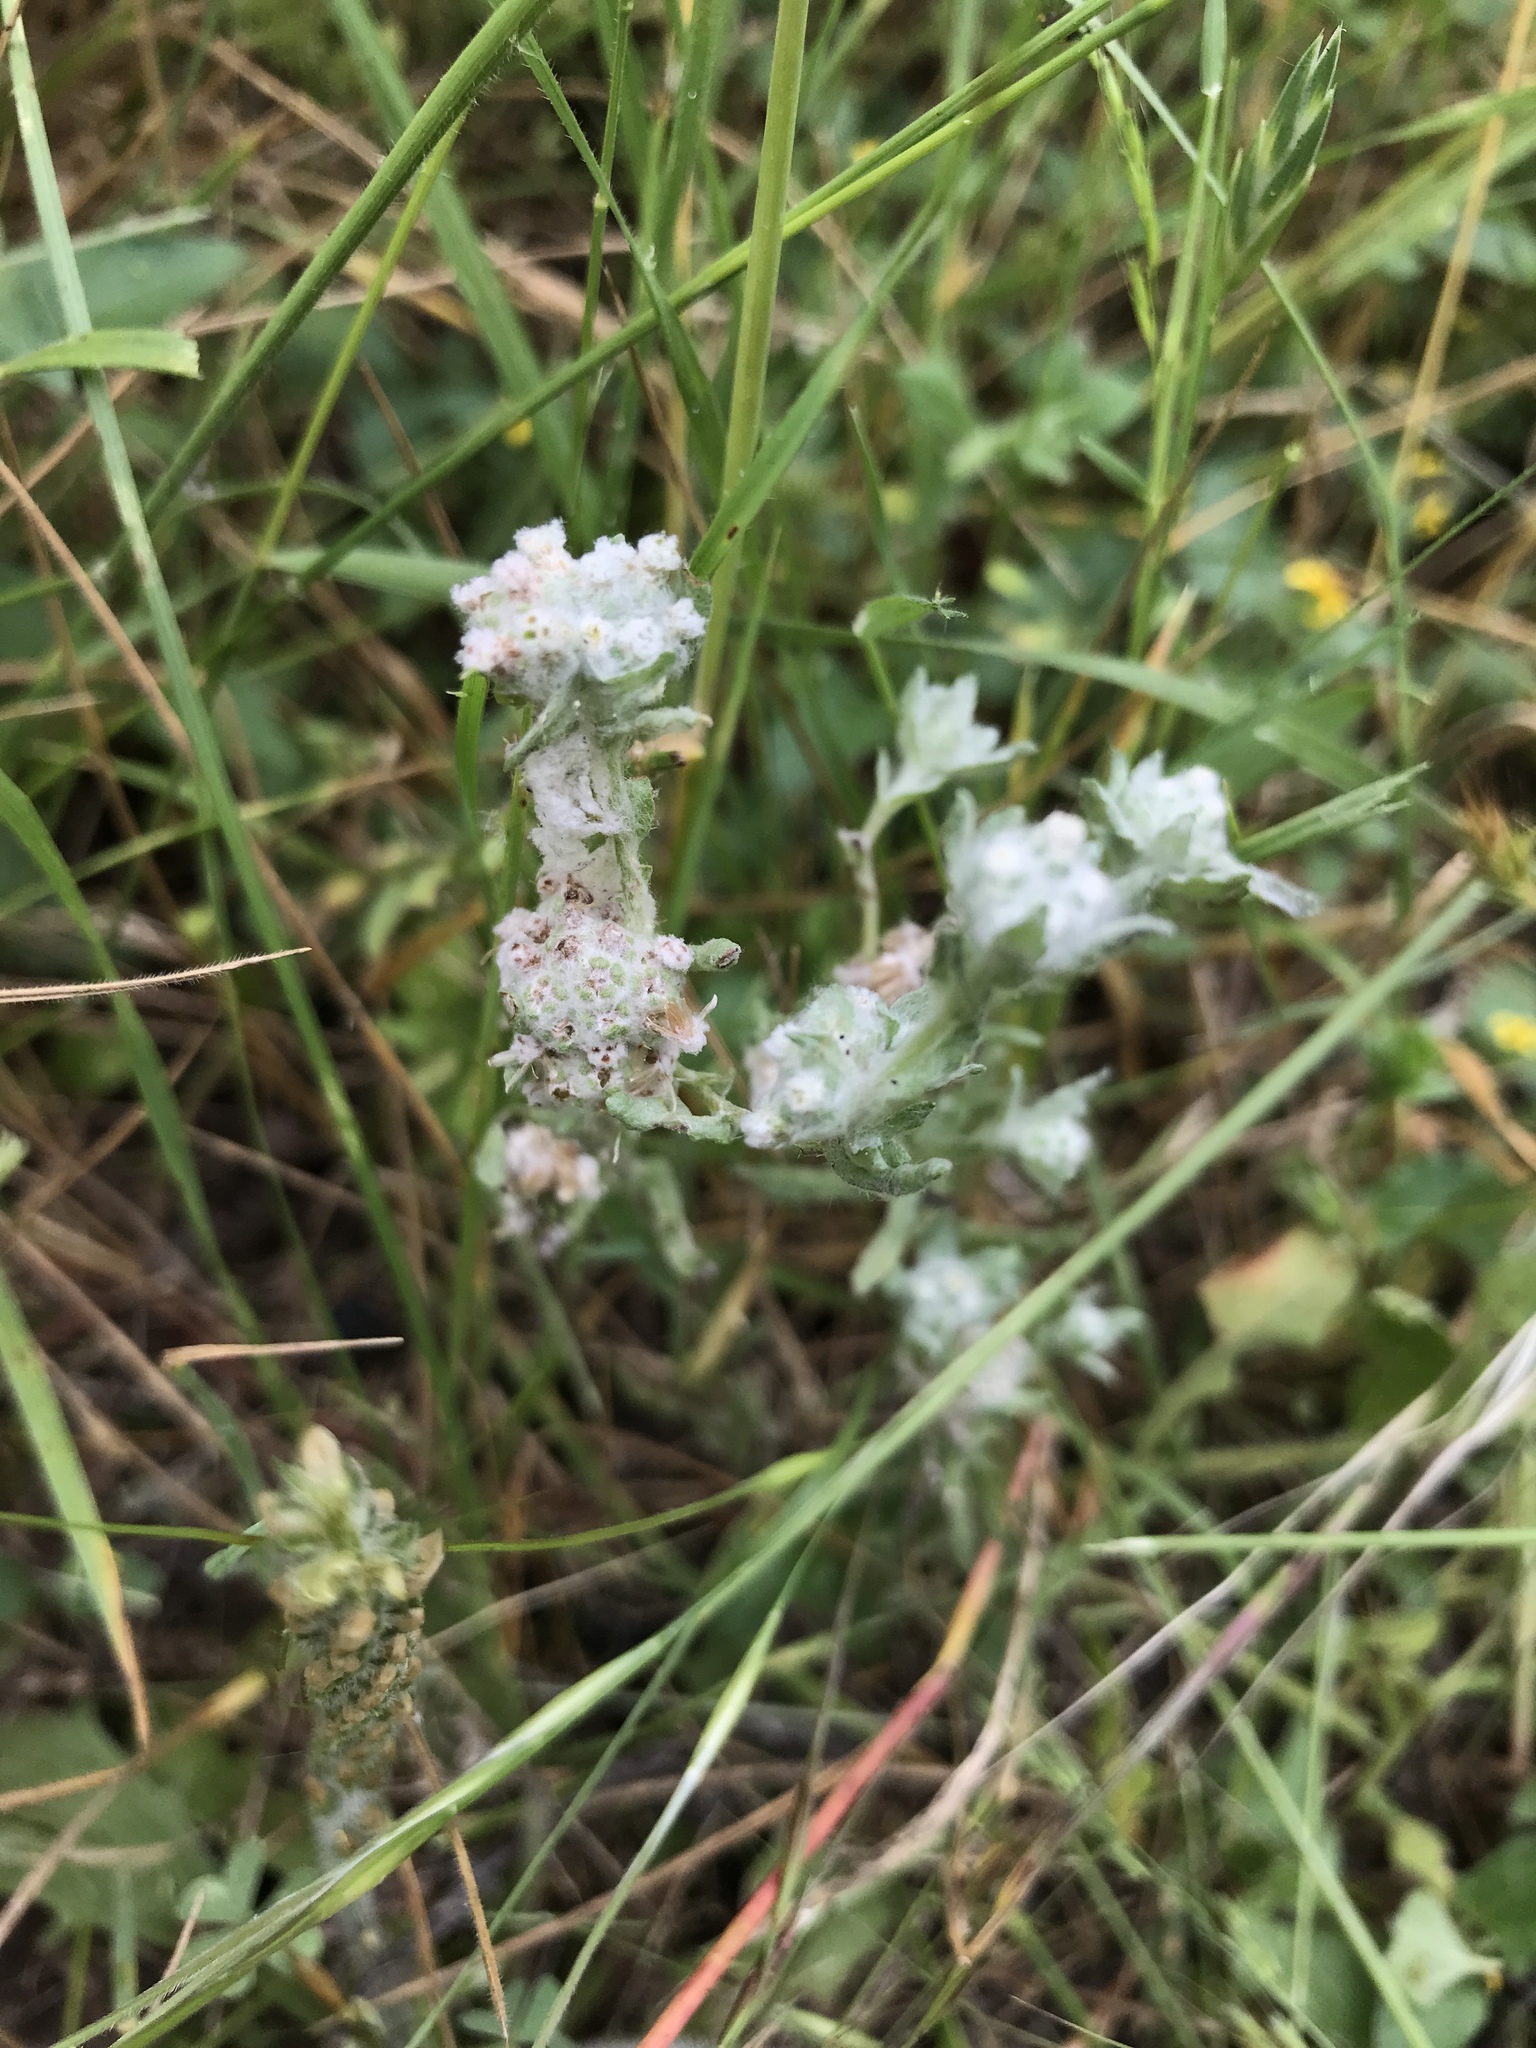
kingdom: Plantae
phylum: Tracheophyta
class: Magnoliopsida
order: Asterales
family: Asteraceae
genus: Diaperia
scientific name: Diaperia verna
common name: Many-stem rabbit-tobacco
